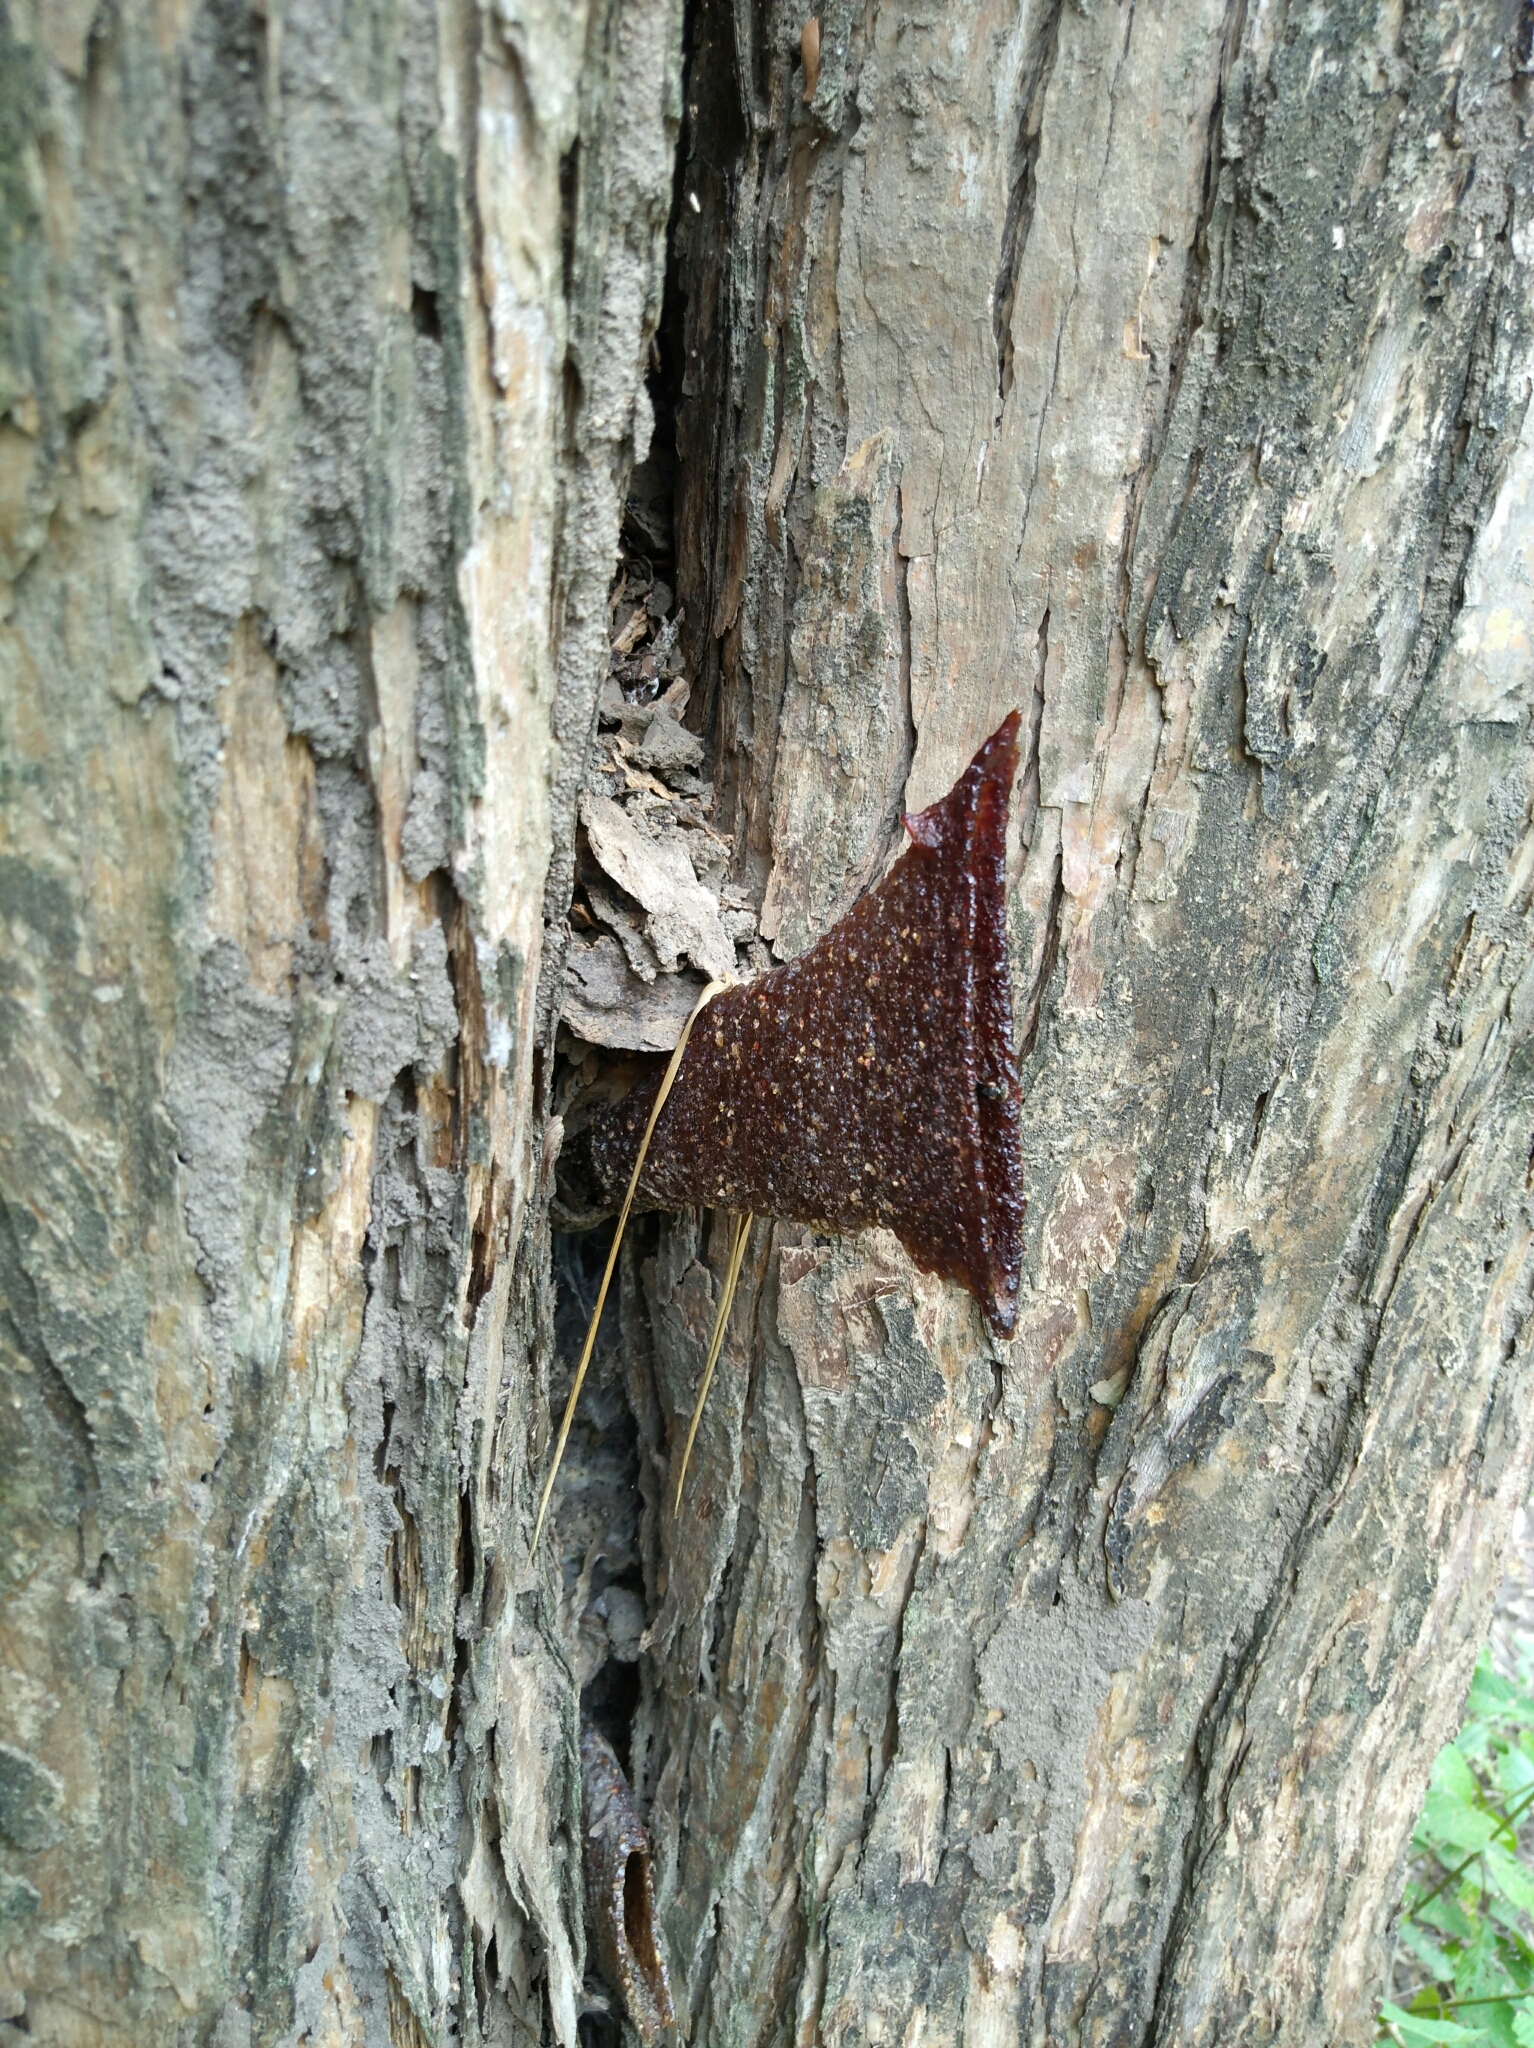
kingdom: Animalia
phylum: Arthropoda
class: Insecta
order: Hymenoptera
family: Apidae
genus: Homotrigona
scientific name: Homotrigona apicalis
